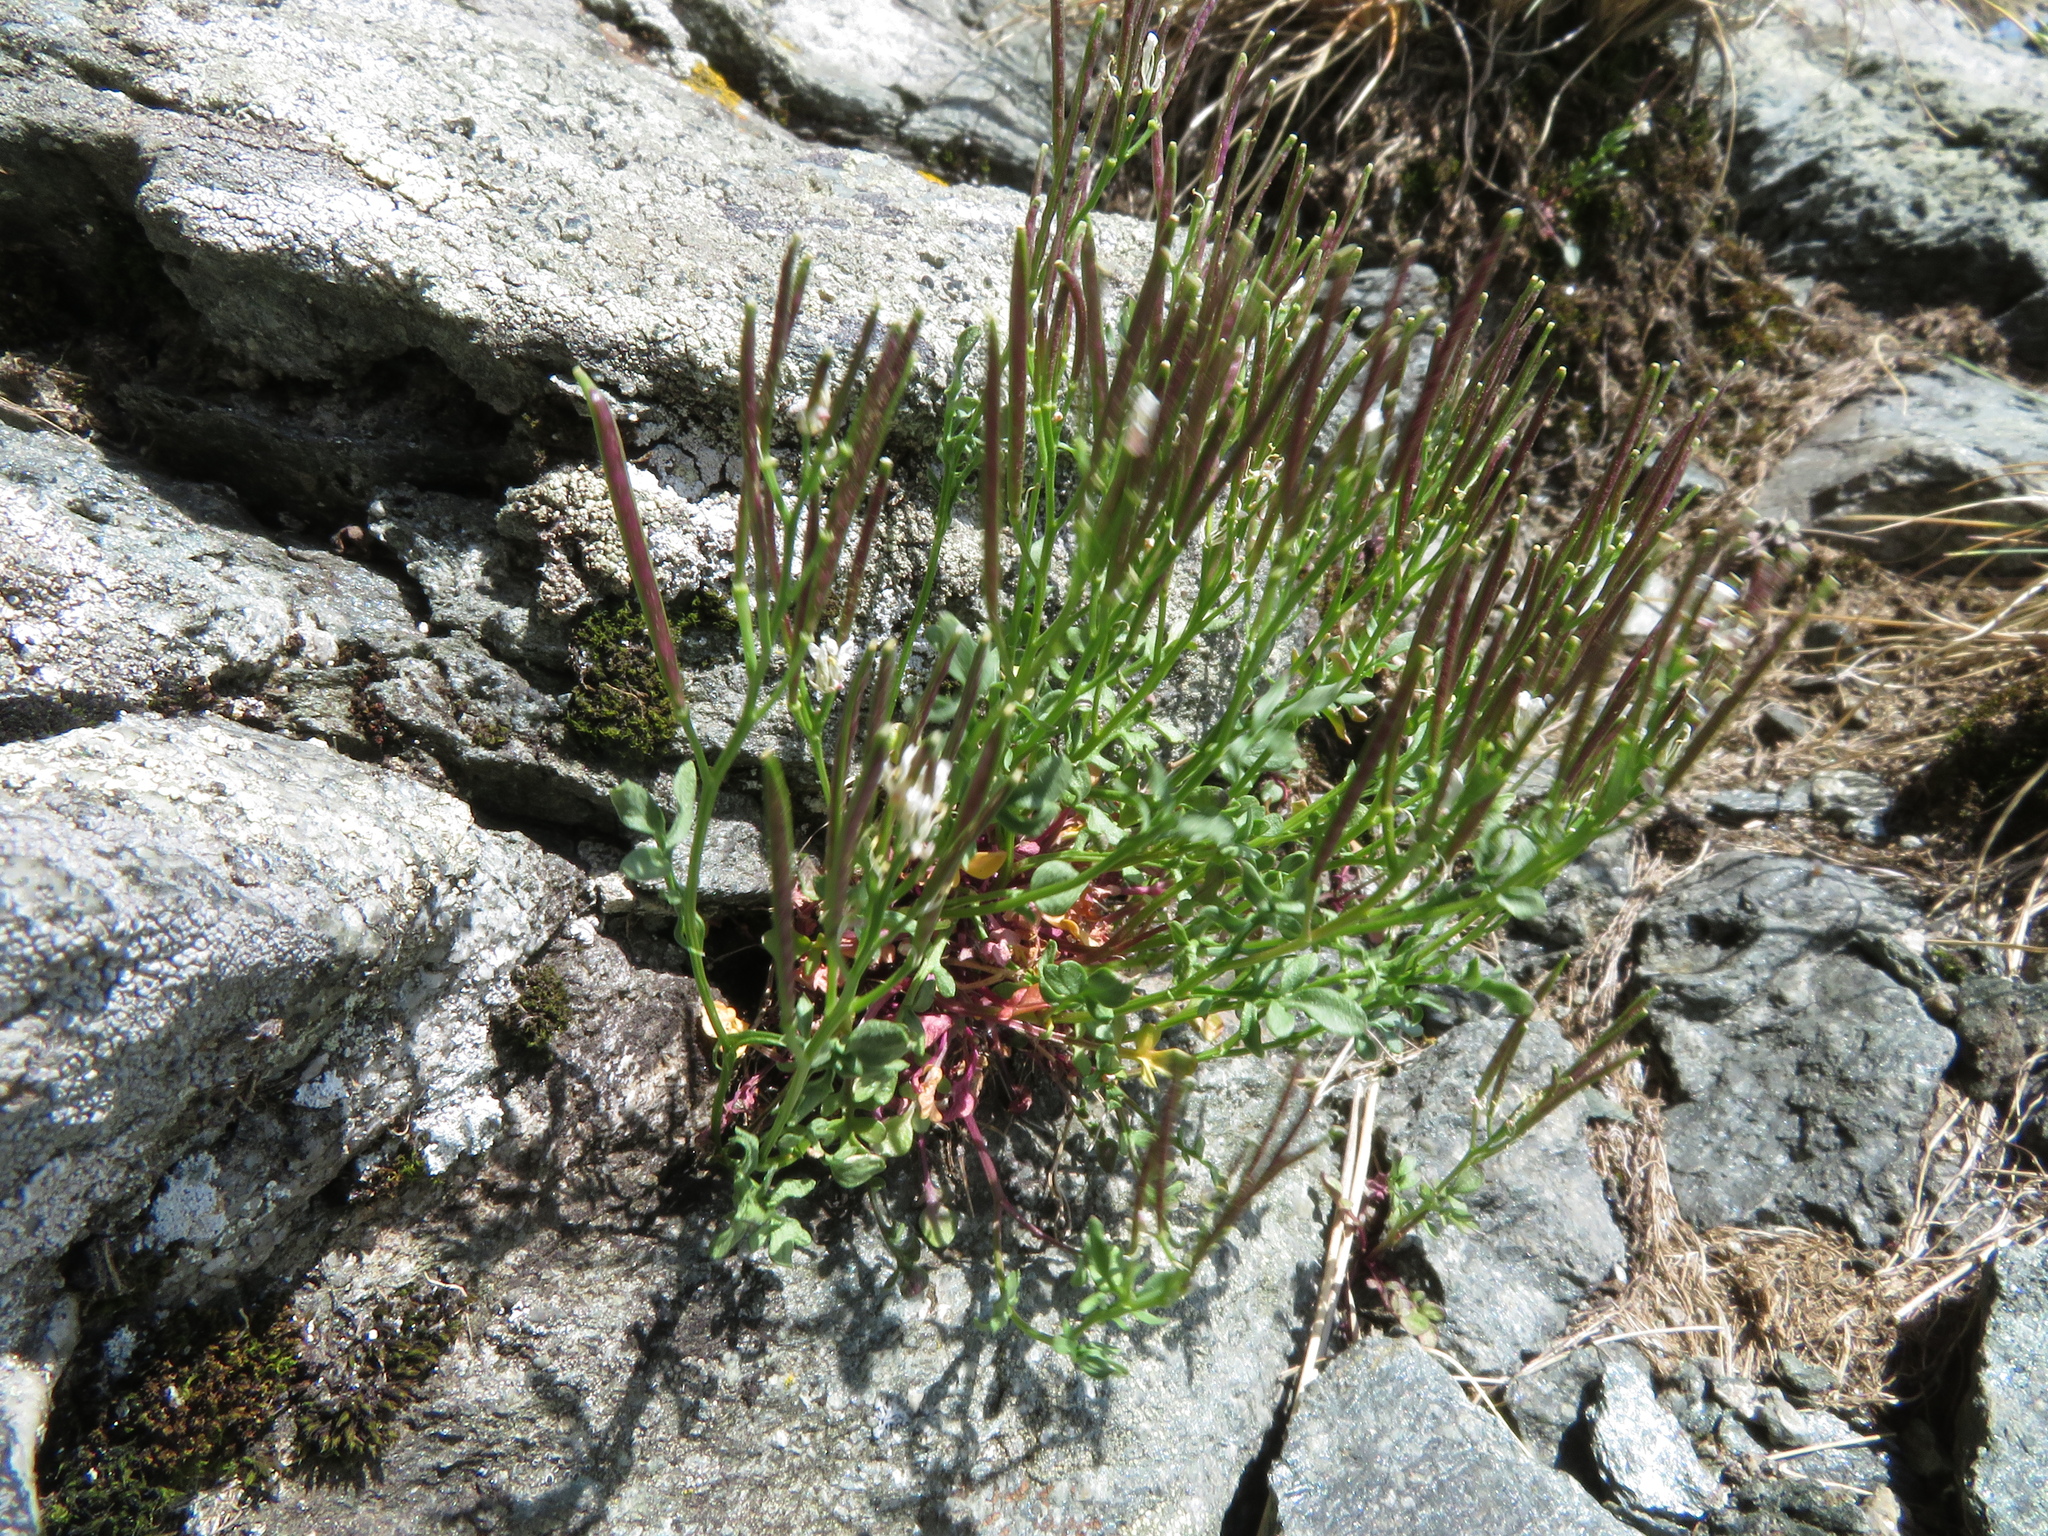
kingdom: Plantae
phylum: Tracheophyta
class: Magnoliopsida
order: Brassicales
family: Brassicaceae
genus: Cardamine
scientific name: Cardamine resedifolia
